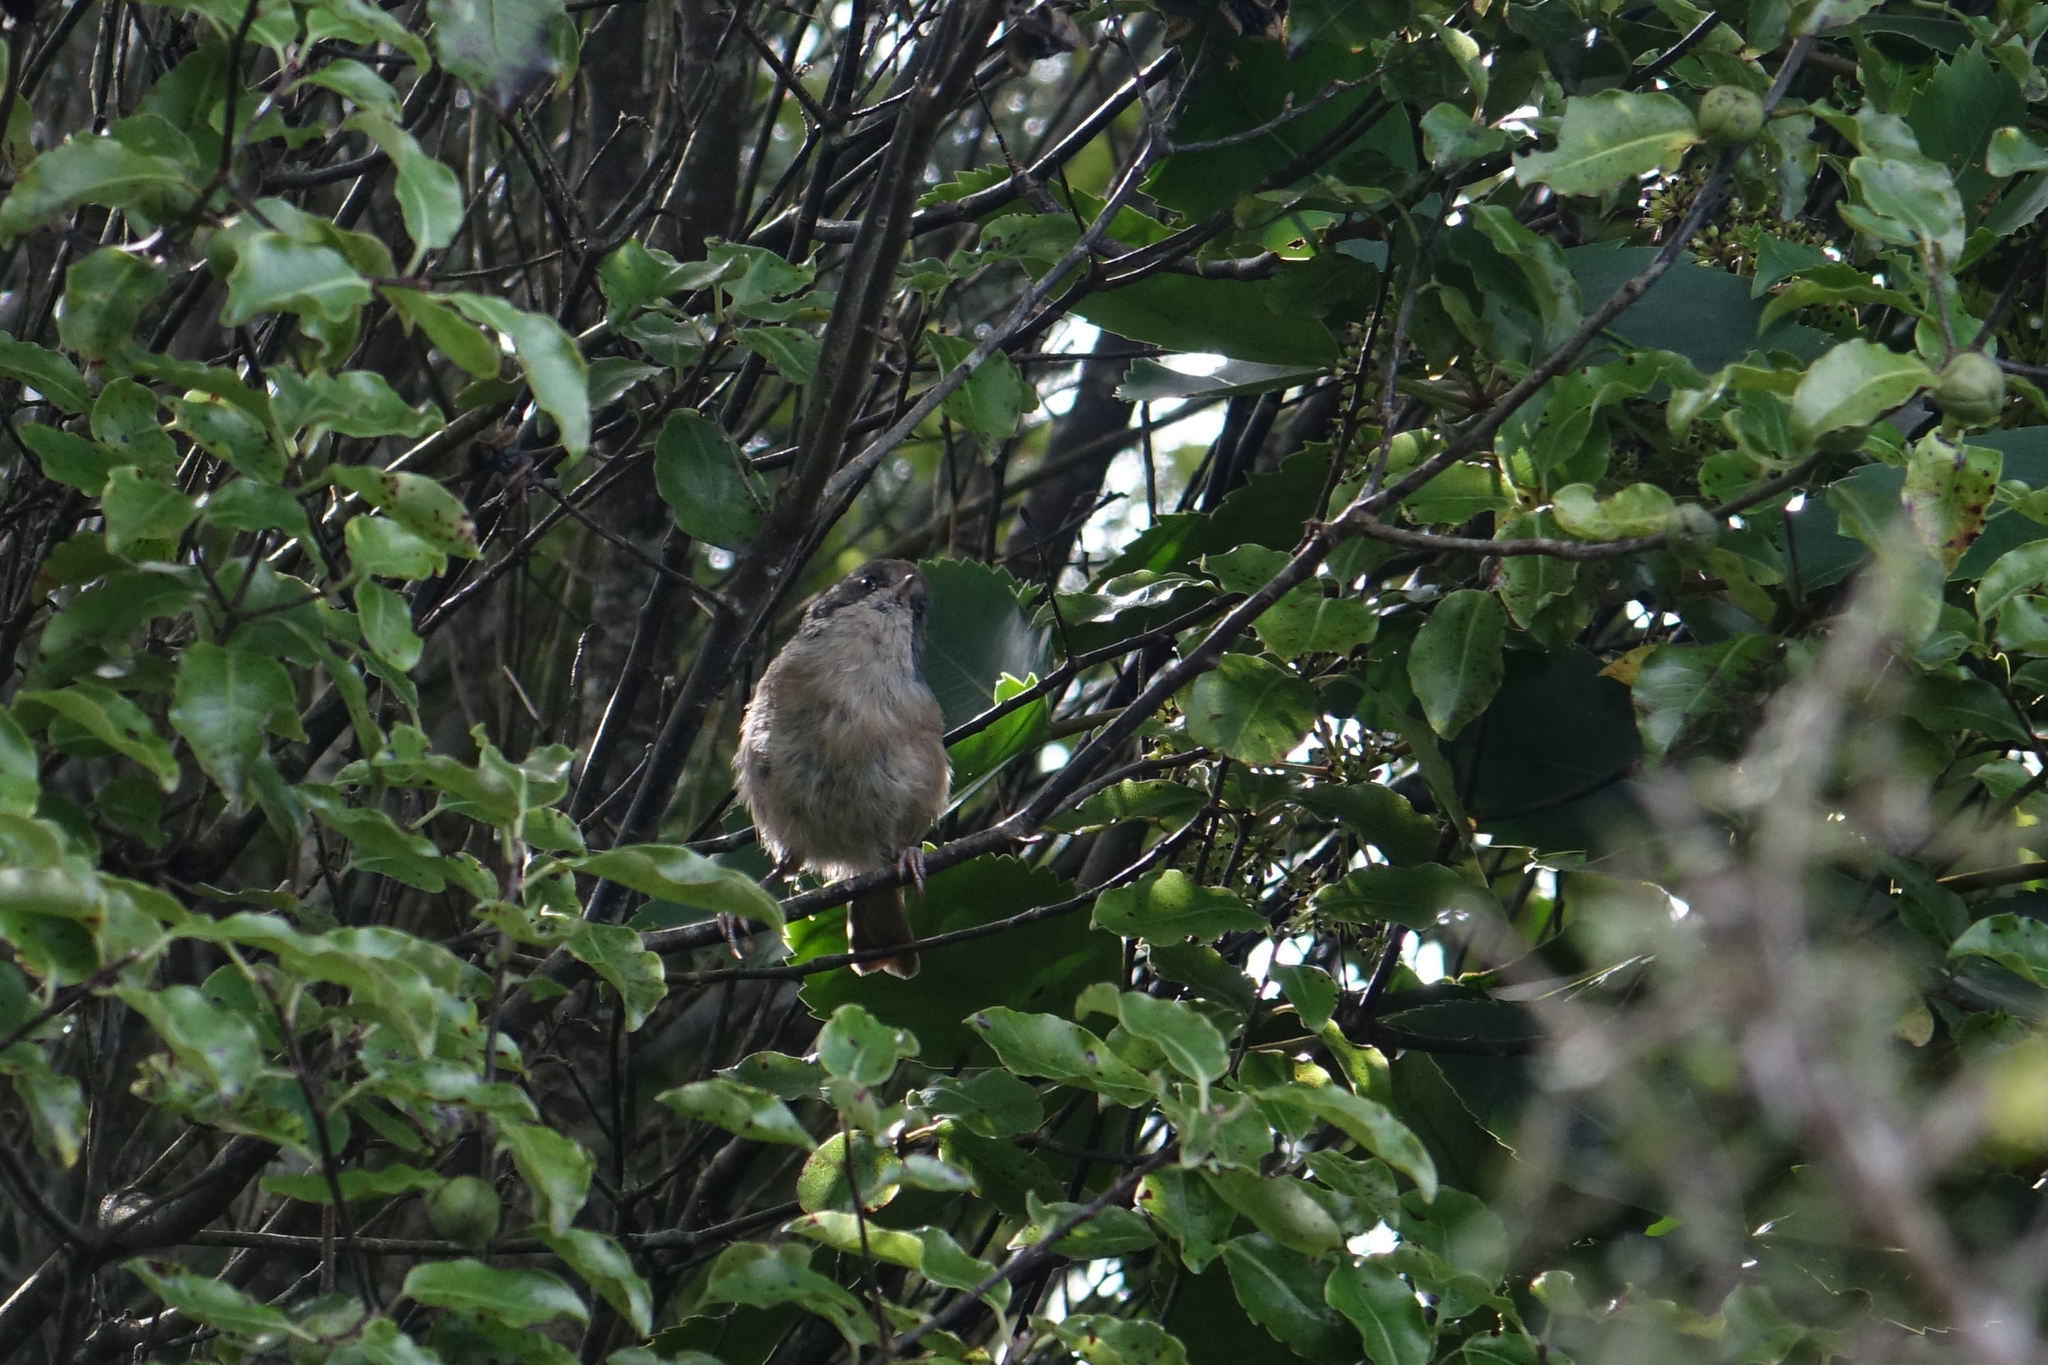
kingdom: Animalia
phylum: Chordata
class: Aves
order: Passeriformes
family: Acanthizidae
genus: Finschia
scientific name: Finschia novaeseelandiae
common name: Pipipi
